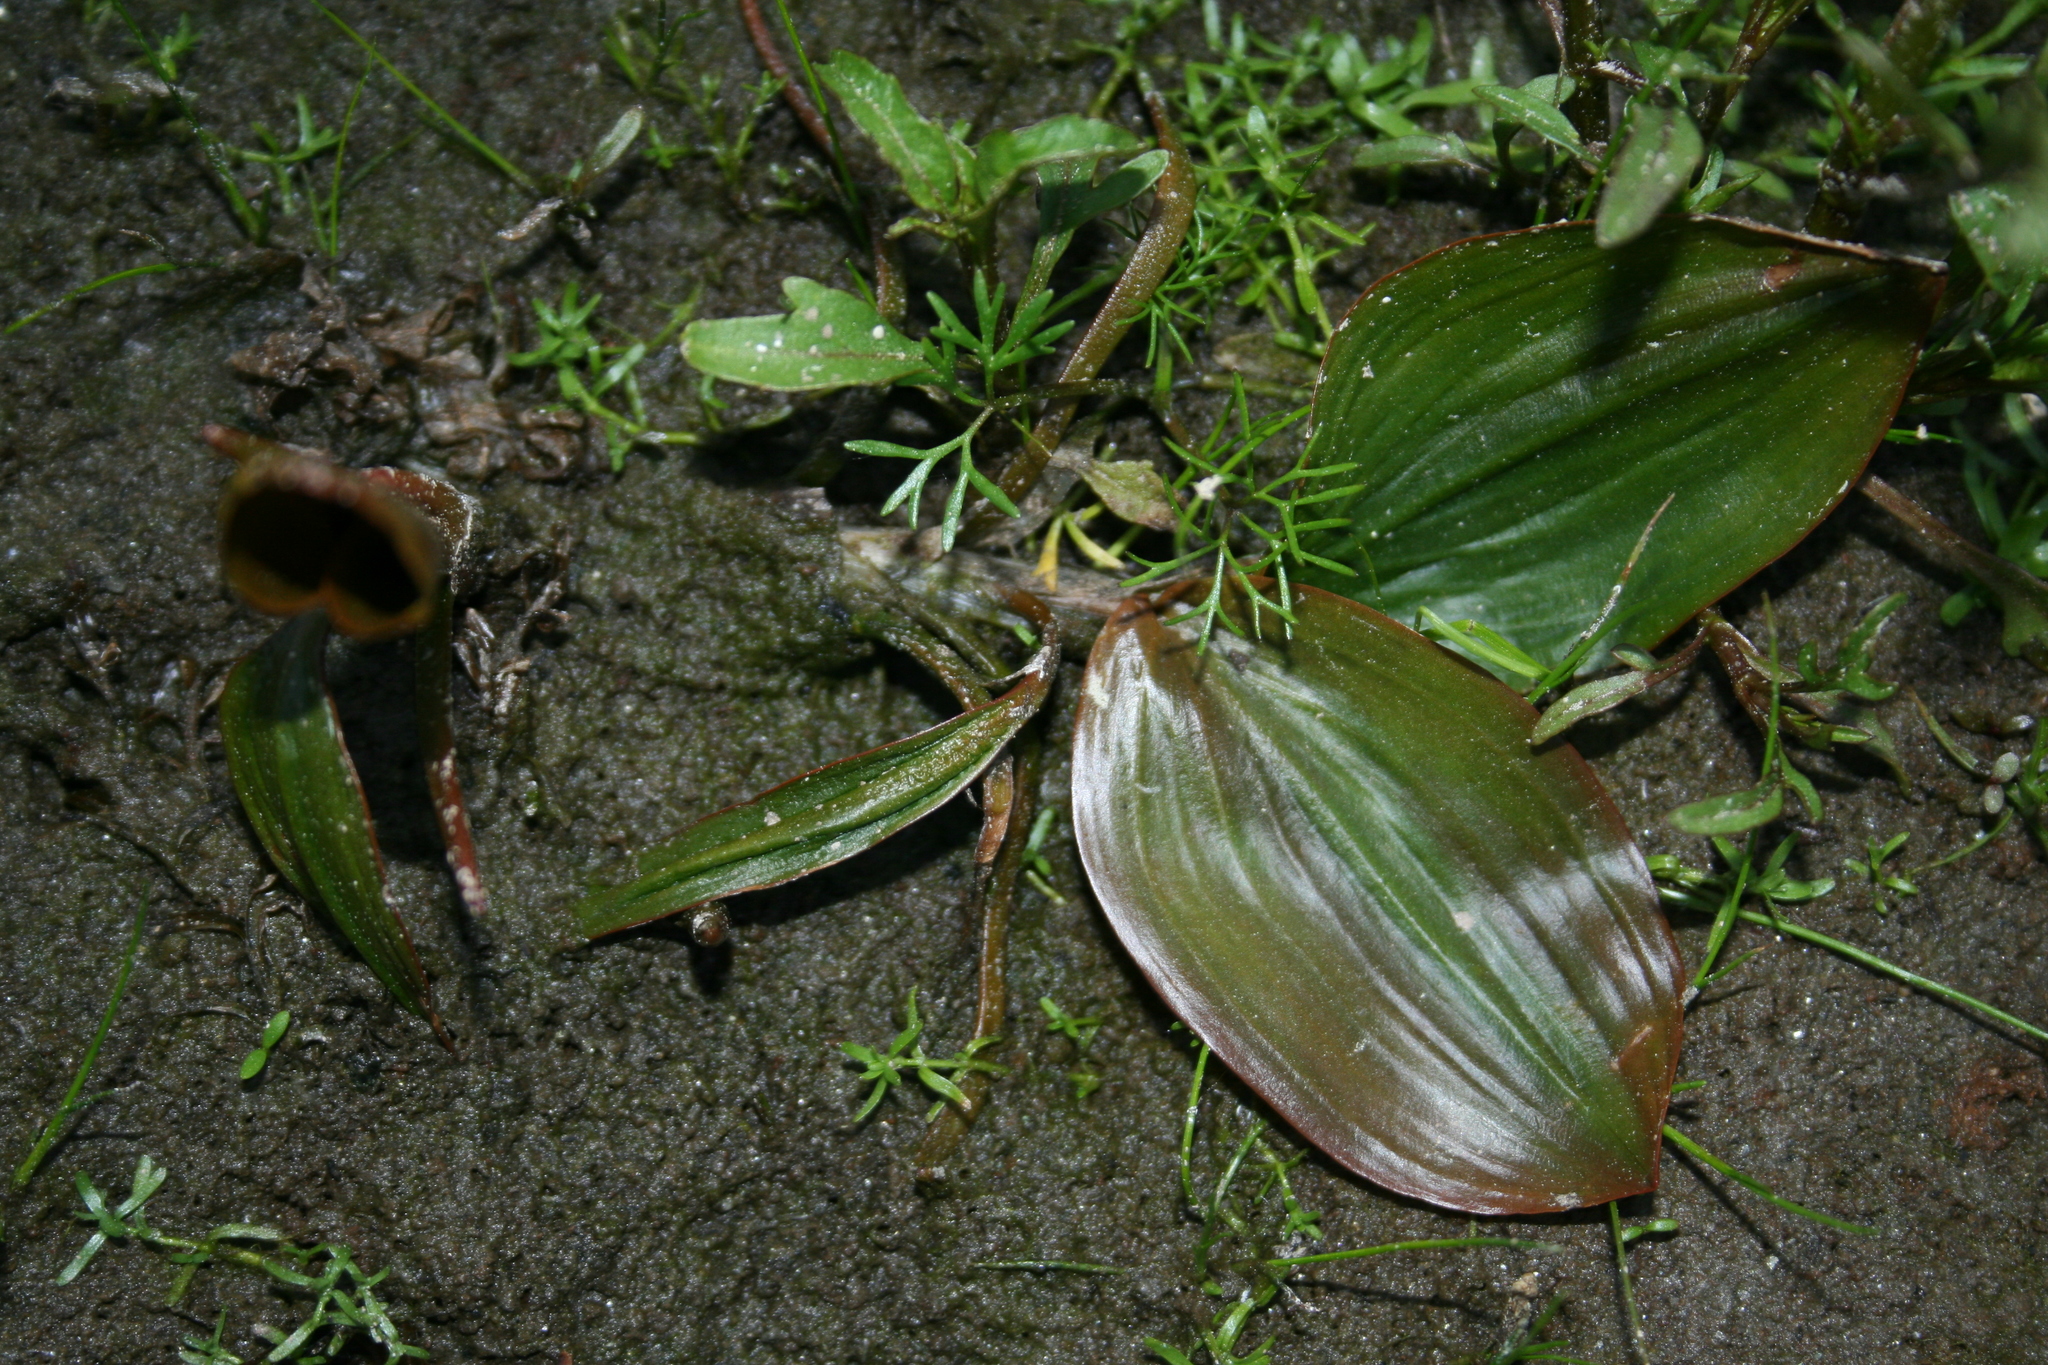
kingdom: Plantae
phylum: Tracheophyta
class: Liliopsida
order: Alismatales
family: Potamogetonaceae
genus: Potamogeton
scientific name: Potamogeton natans
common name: Broad-leaved pondweed
